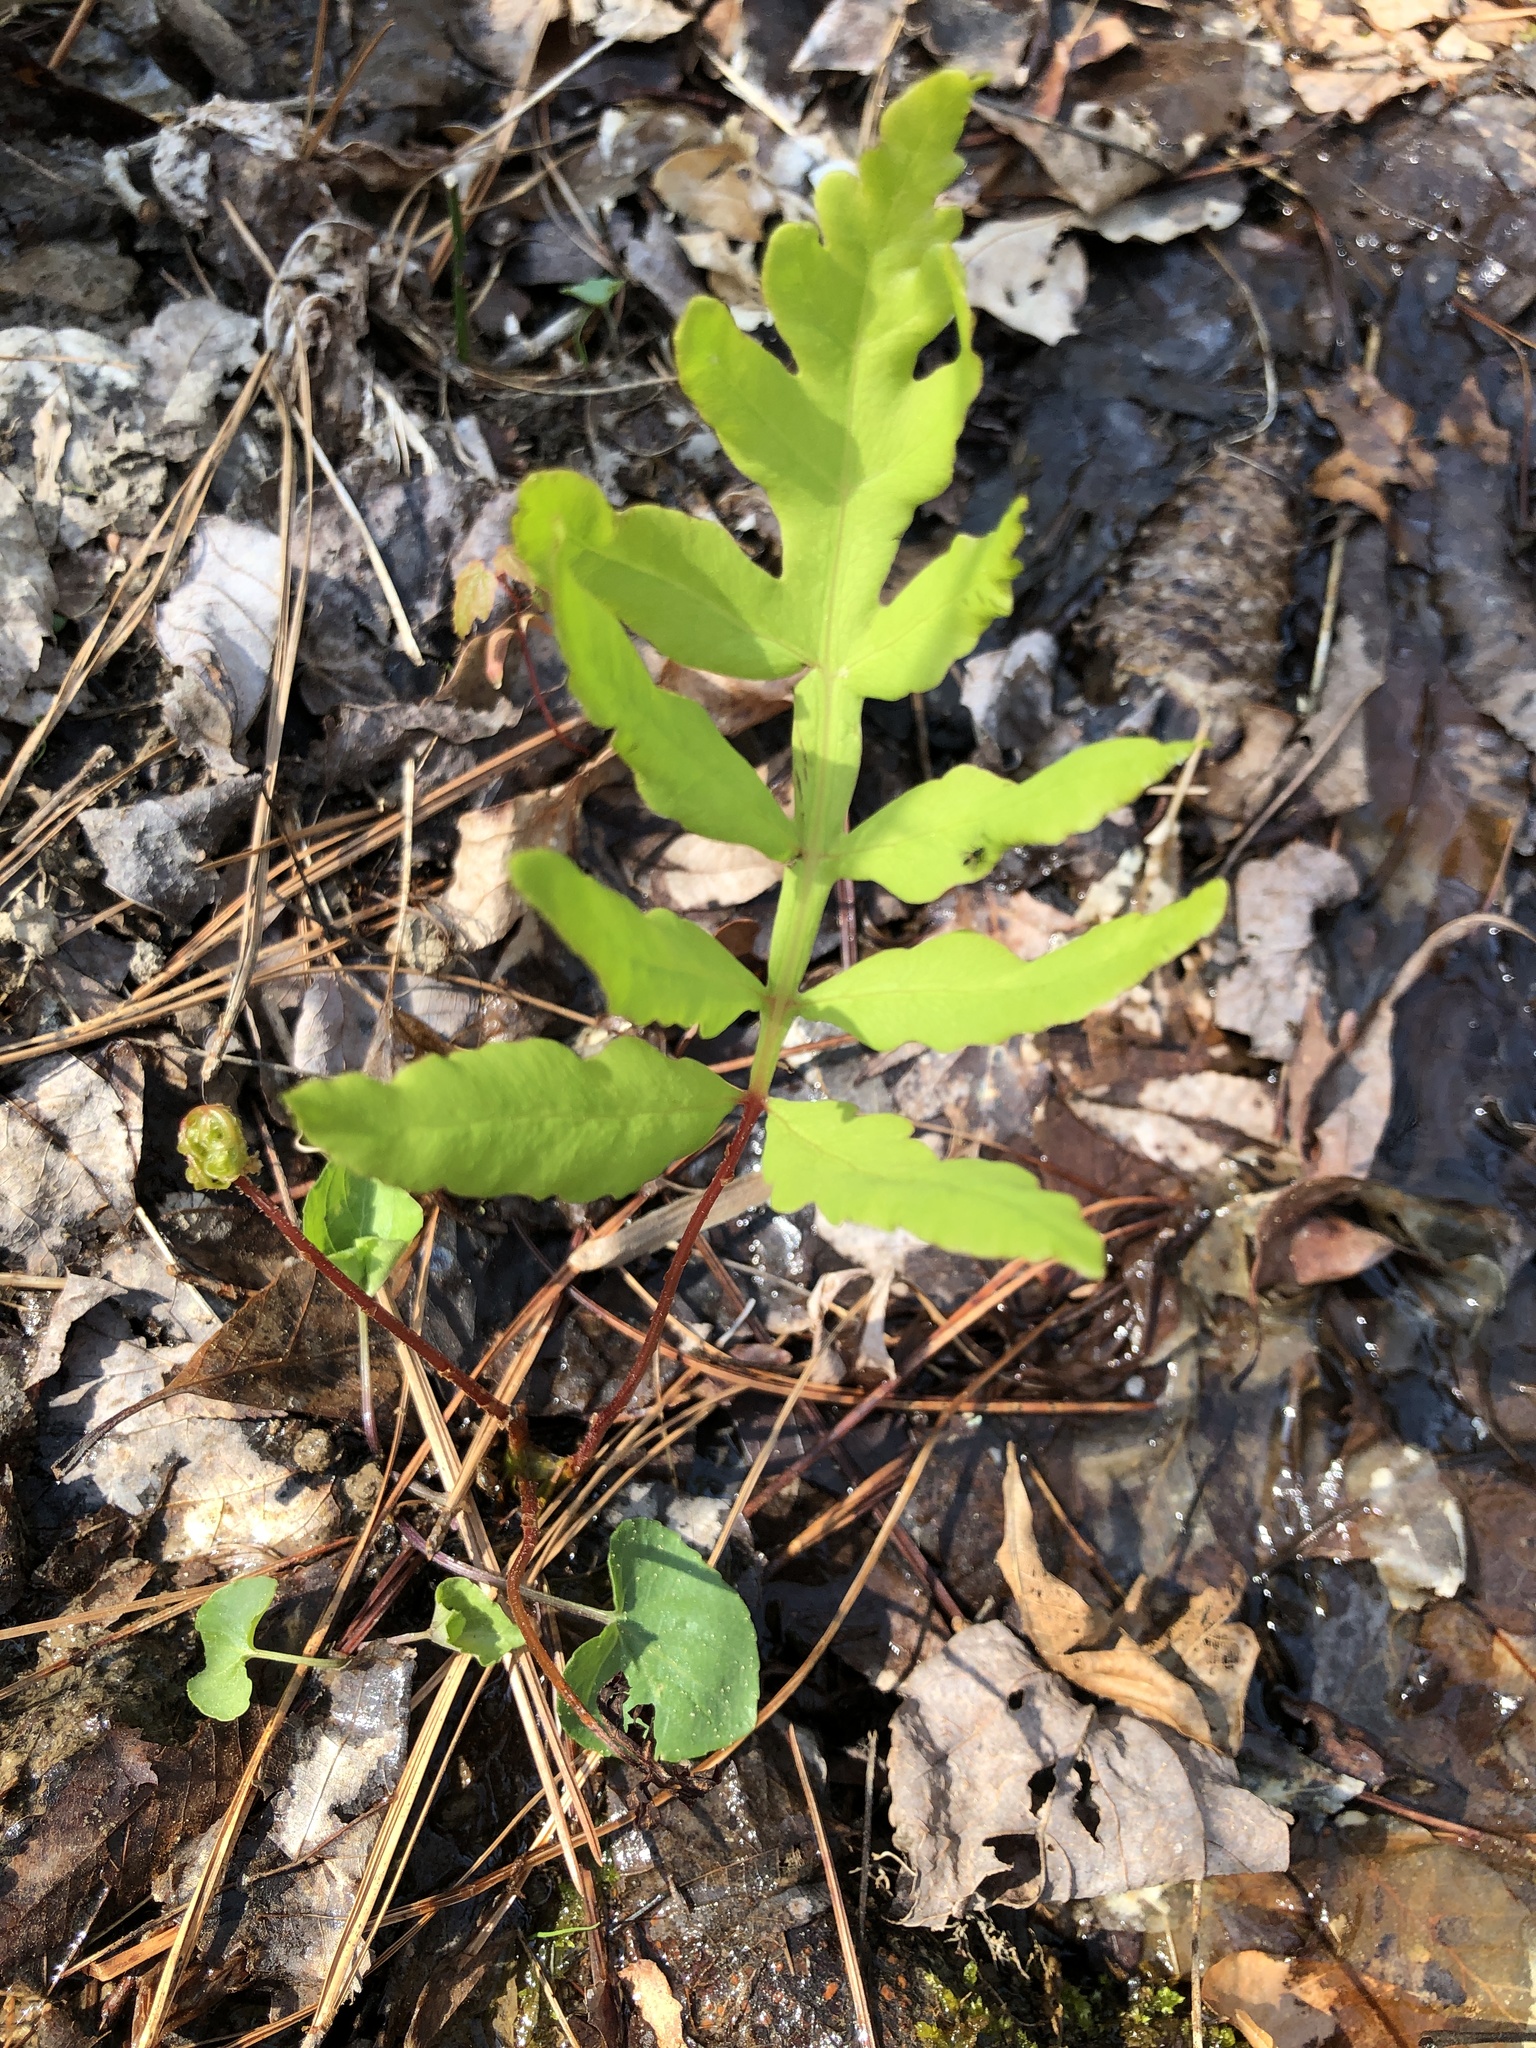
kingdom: Plantae
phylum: Tracheophyta
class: Polypodiopsida
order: Polypodiales
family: Onocleaceae
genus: Onoclea
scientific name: Onoclea sensibilis
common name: Sensitive fern
